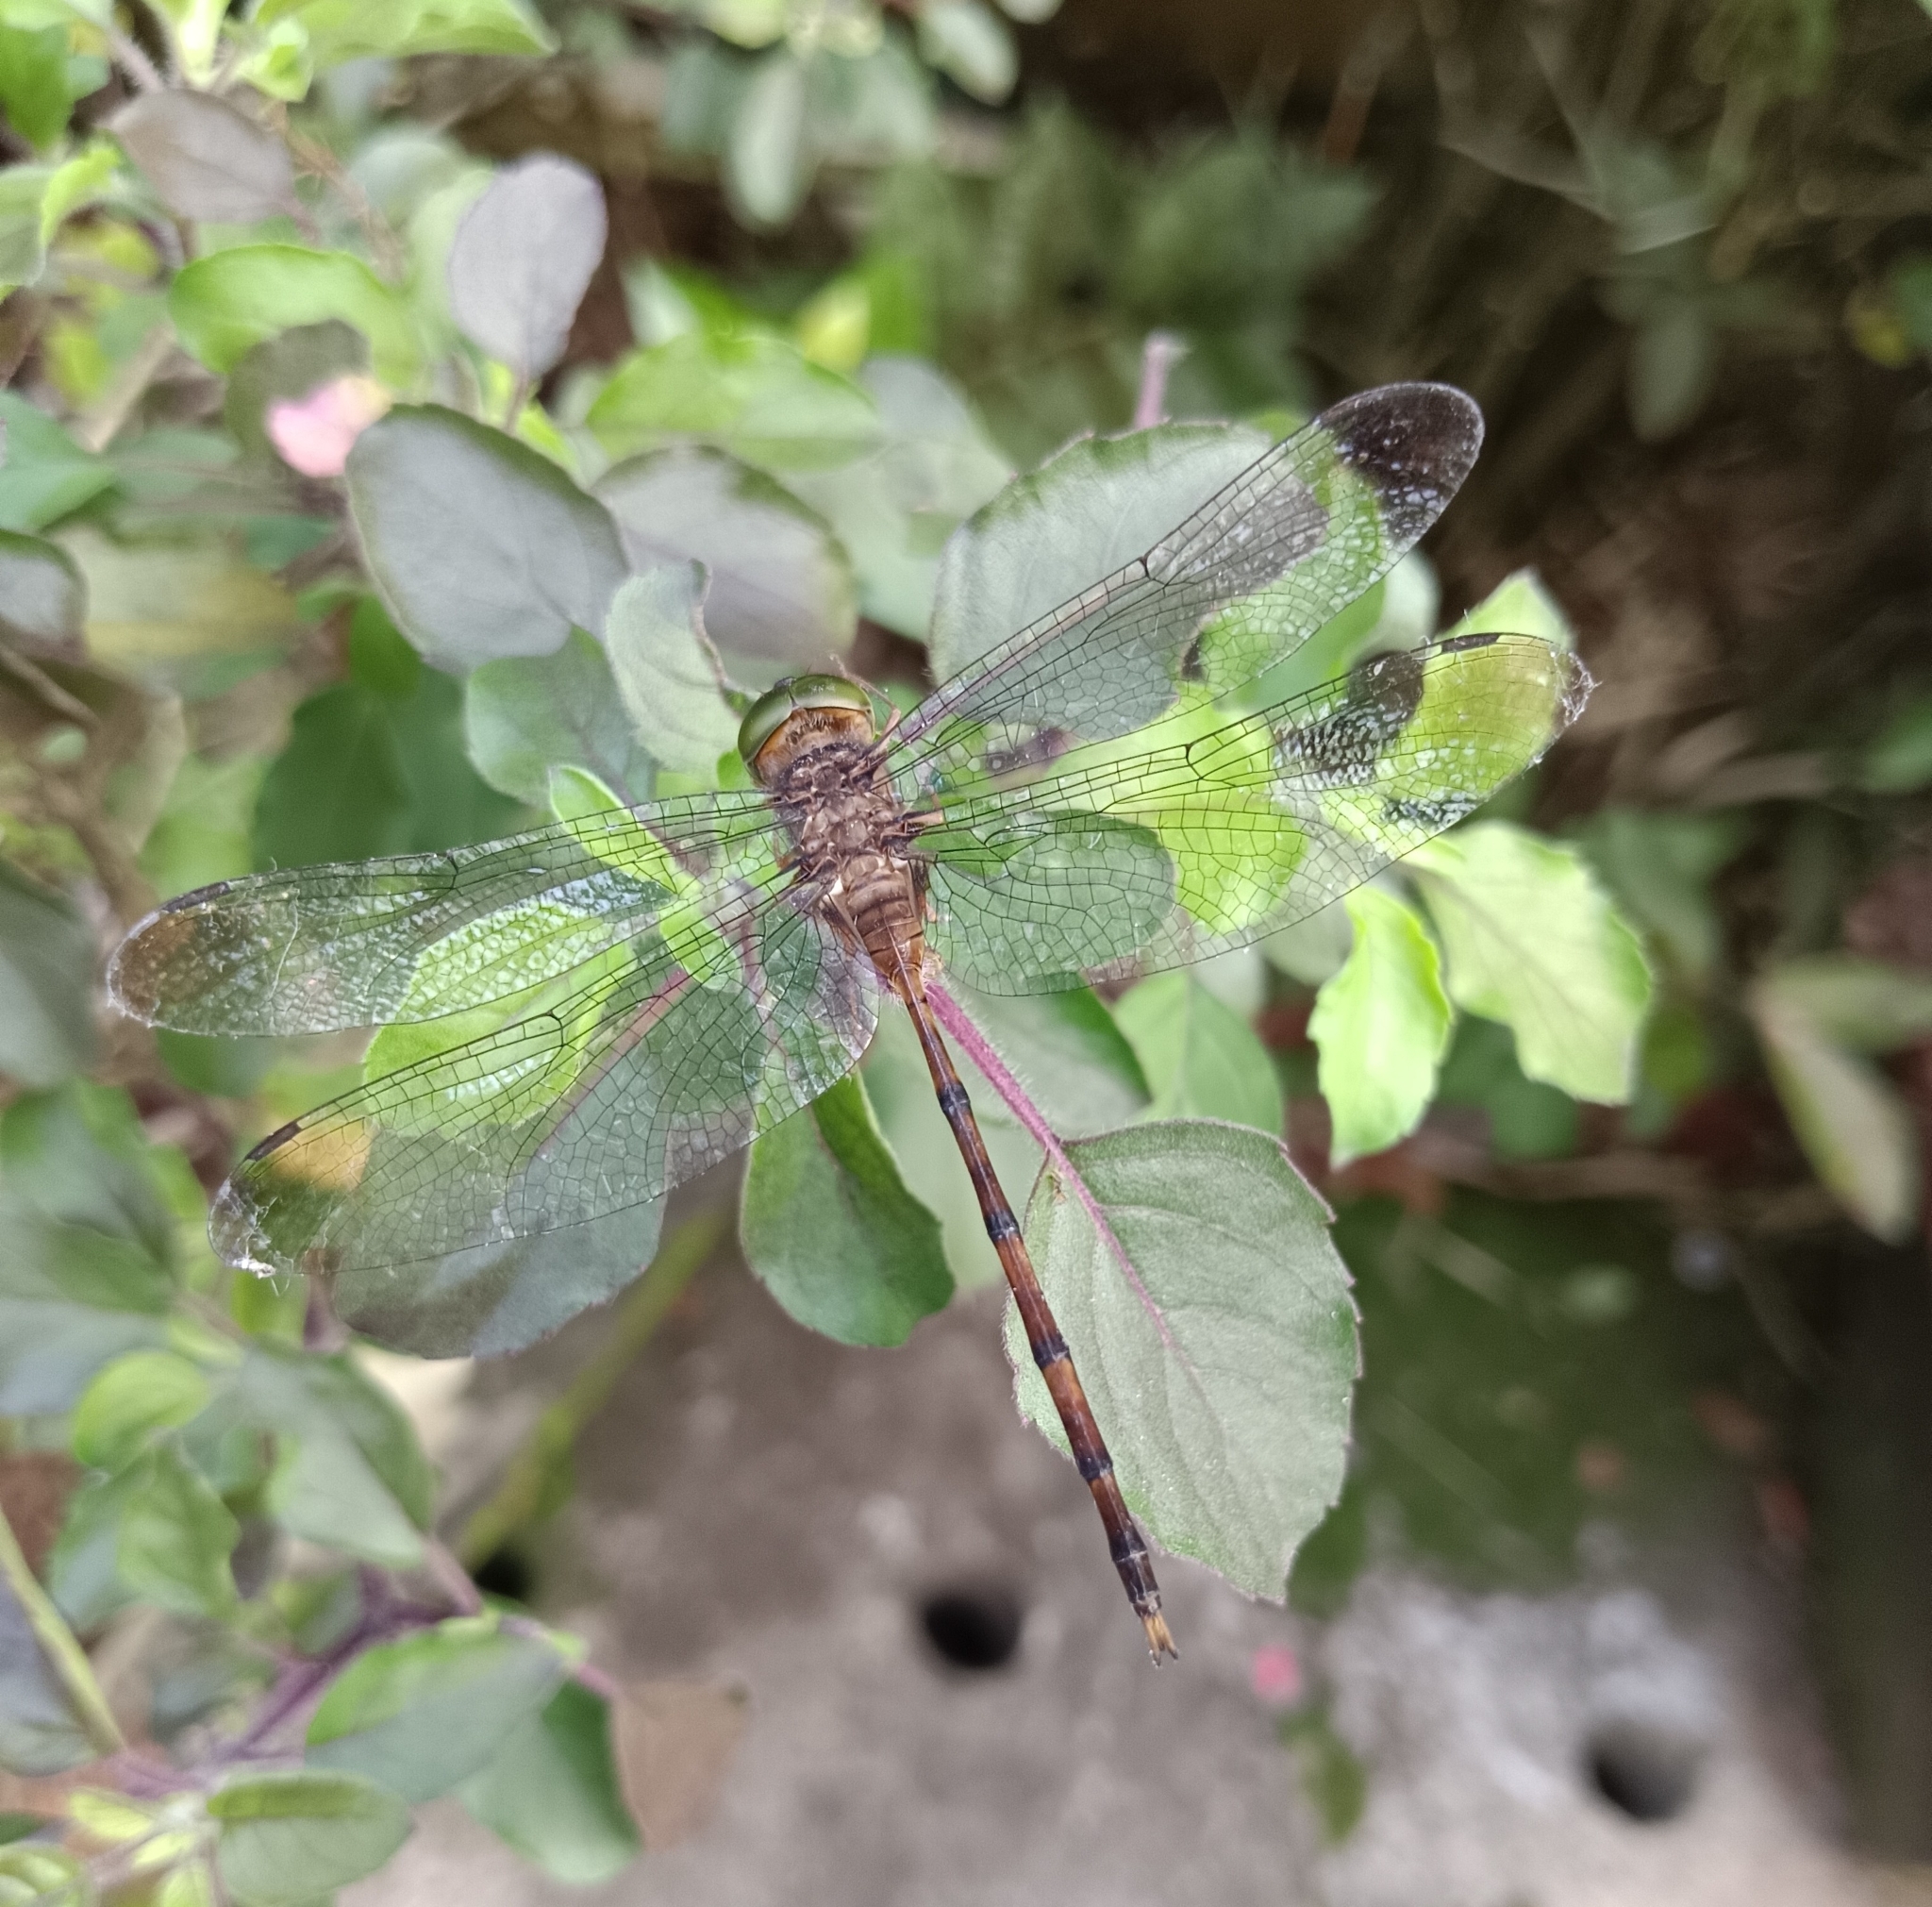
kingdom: Animalia
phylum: Arthropoda
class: Insecta
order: Odonata
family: Libellulidae
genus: Zyxomma
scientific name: Zyxomma petiolatum
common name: Dingy dusk-darter
